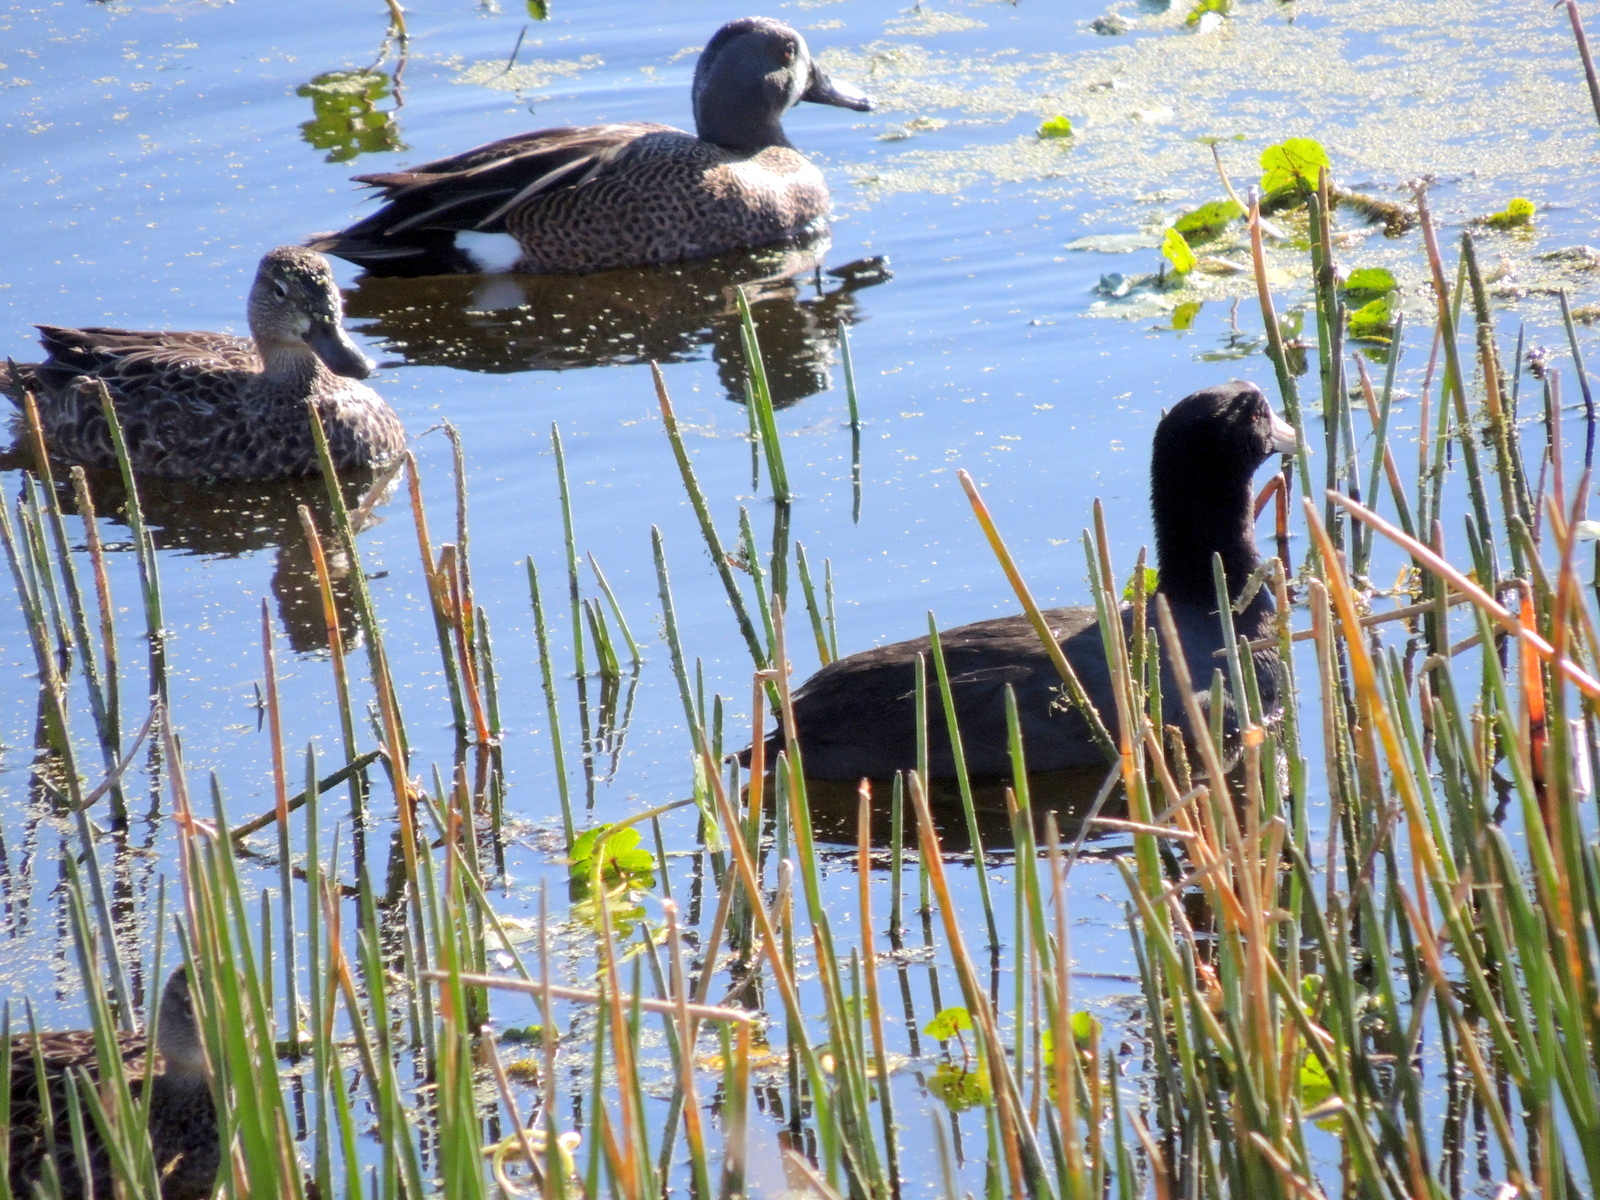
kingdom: Animalia
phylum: Chordata
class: Aves
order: Gruiformes
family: Rallidae
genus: Fulica
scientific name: Fulica americana
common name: American coot
